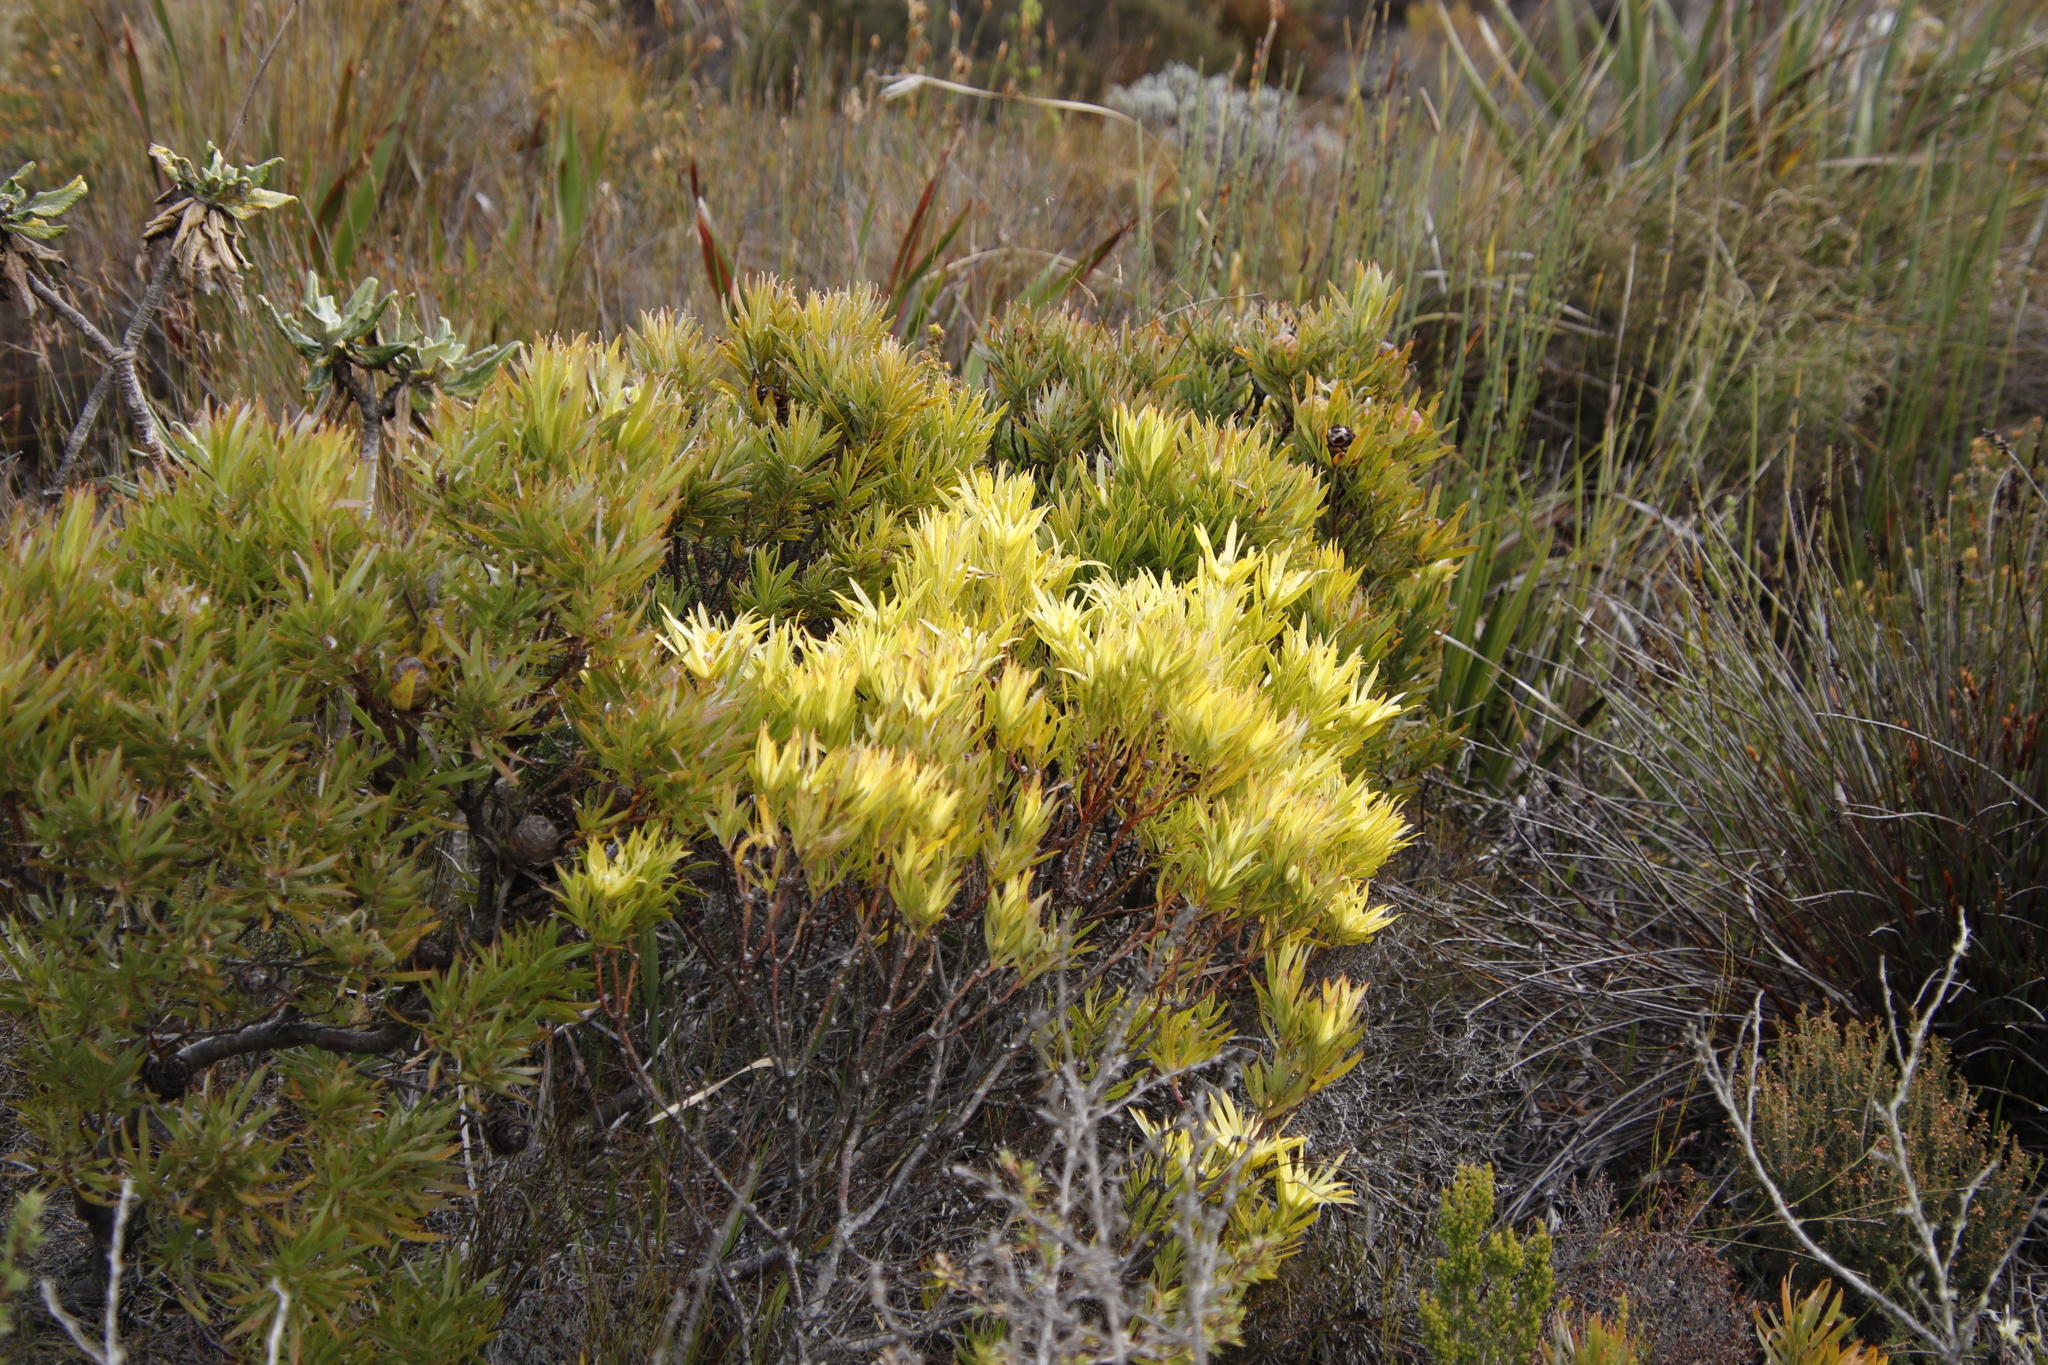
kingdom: Plantae
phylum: Tracheophyta
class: Magnoliopsida
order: Proteales
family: Proteaceae
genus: Leucadendron
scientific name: Leucadendron xanthoconus
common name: Sickle-leaf conebush
